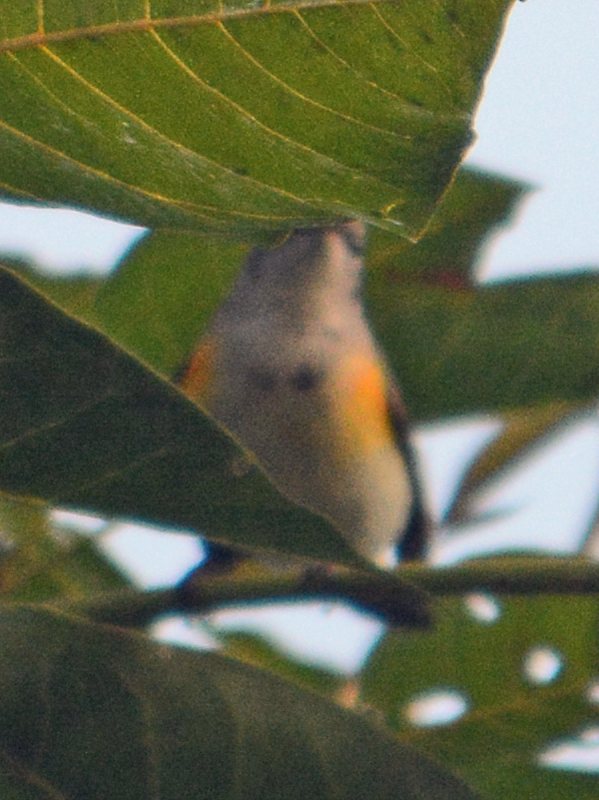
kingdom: Animalia
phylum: Chordata
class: Aves
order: Passeriformes
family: Parulidae
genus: Setophaga
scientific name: Setophaga ruticilla
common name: American redstart
